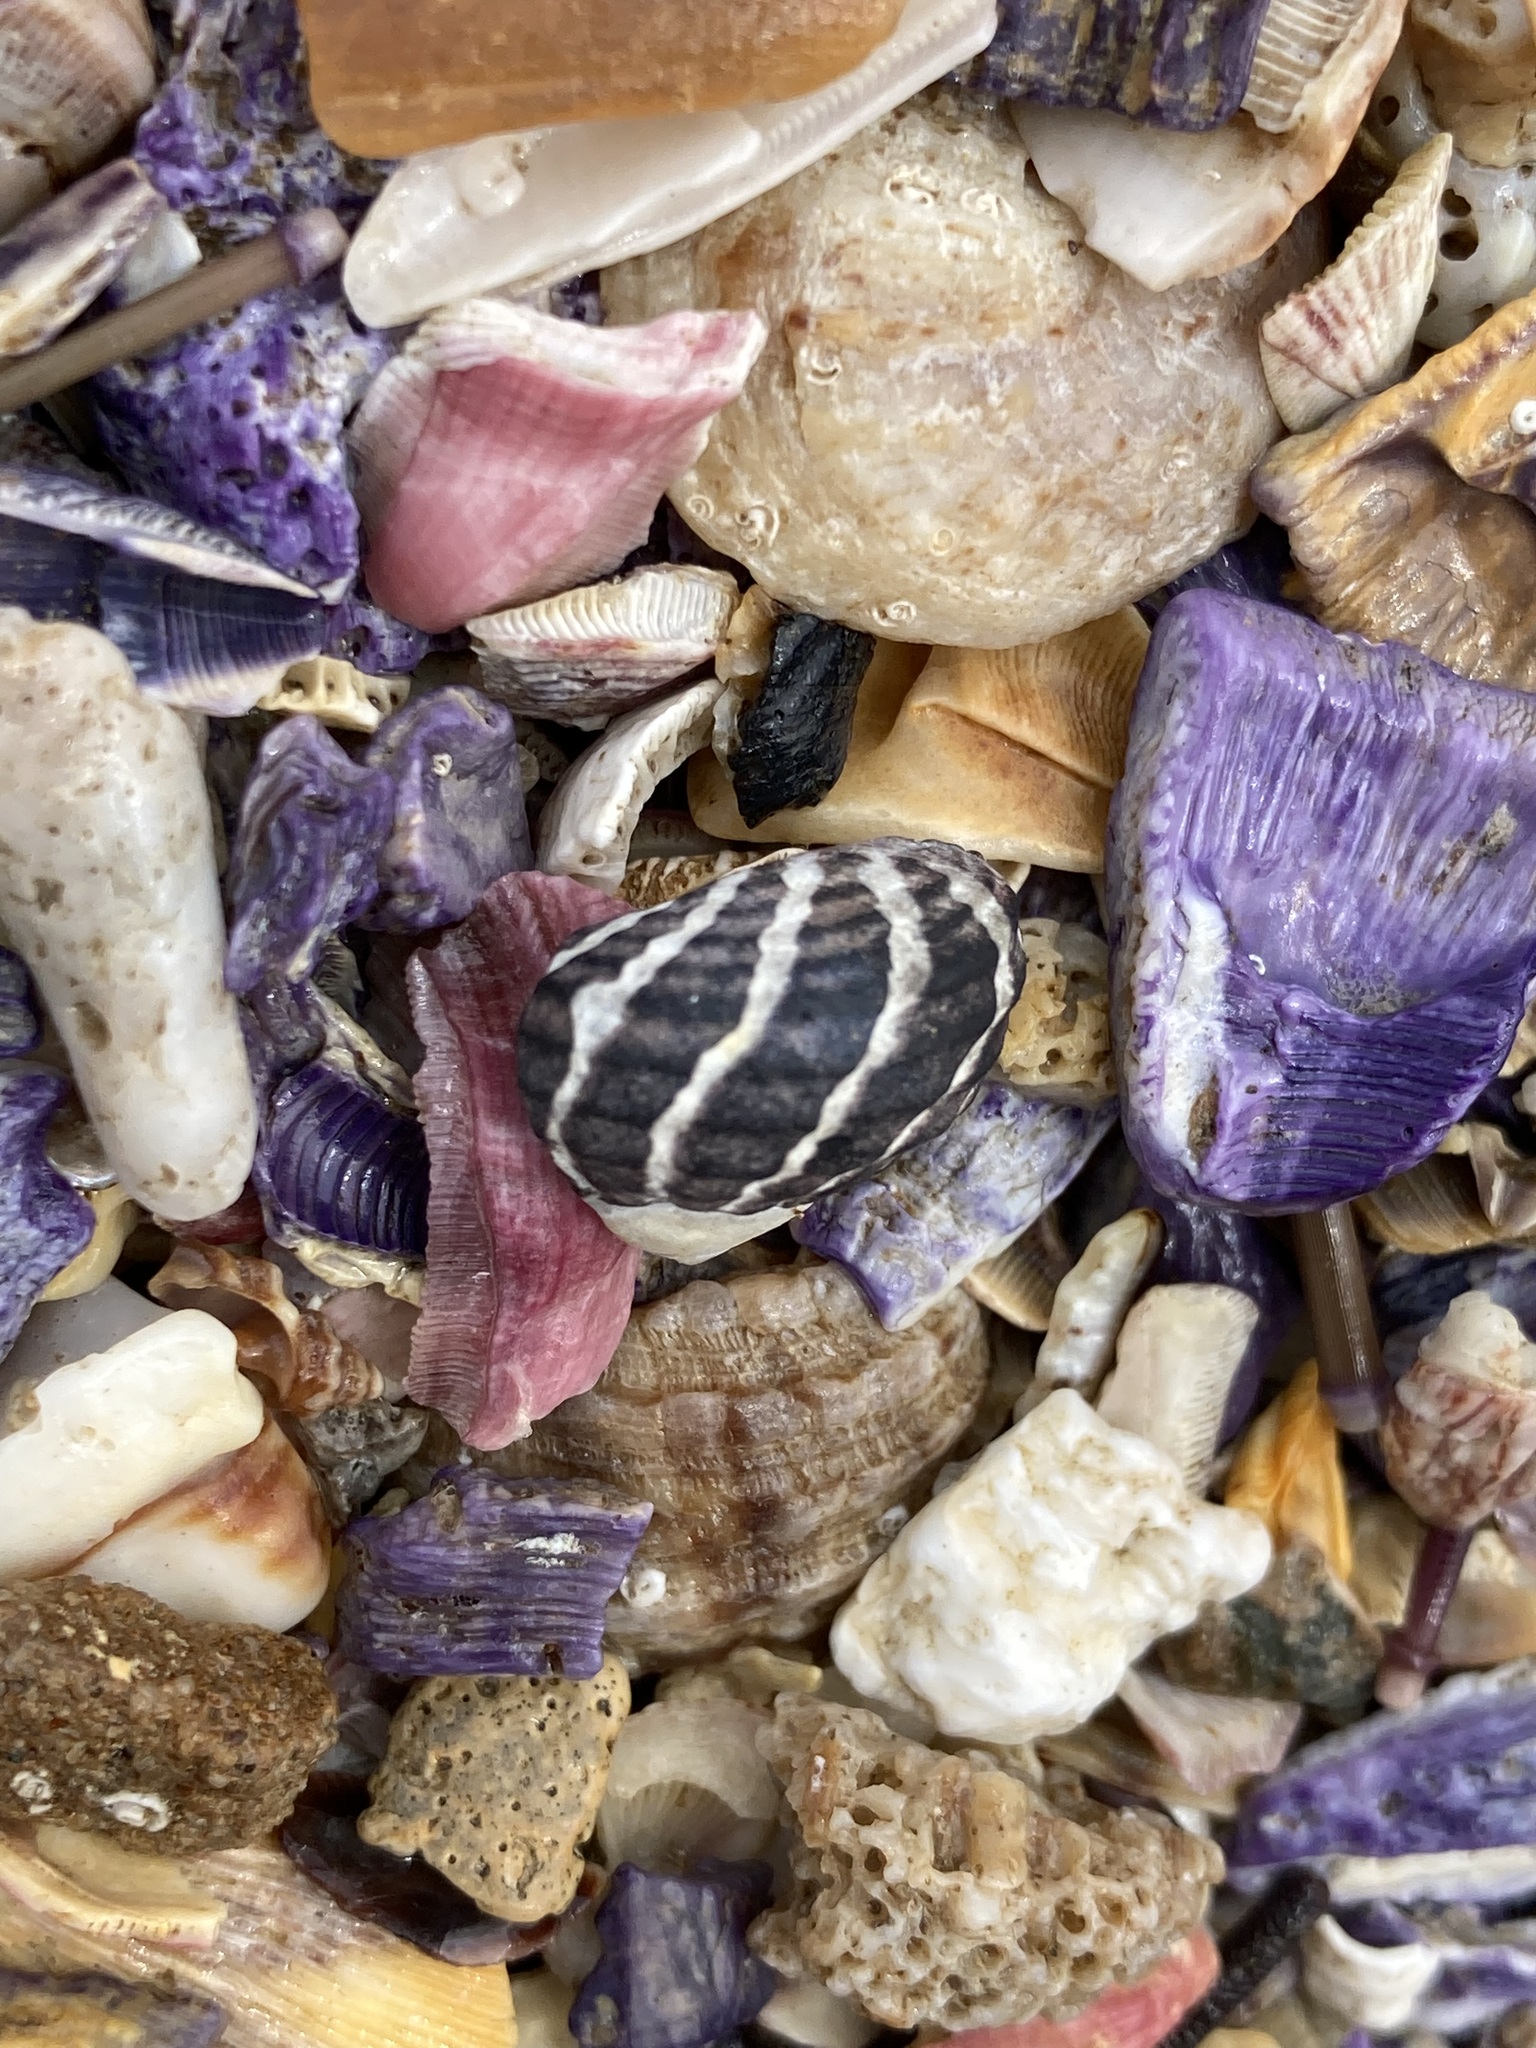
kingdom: Animalia
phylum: Mollusca
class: Gastropoda
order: Trochida
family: Trochidae
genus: Austrocochlea
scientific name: Austrocochlea porcata
